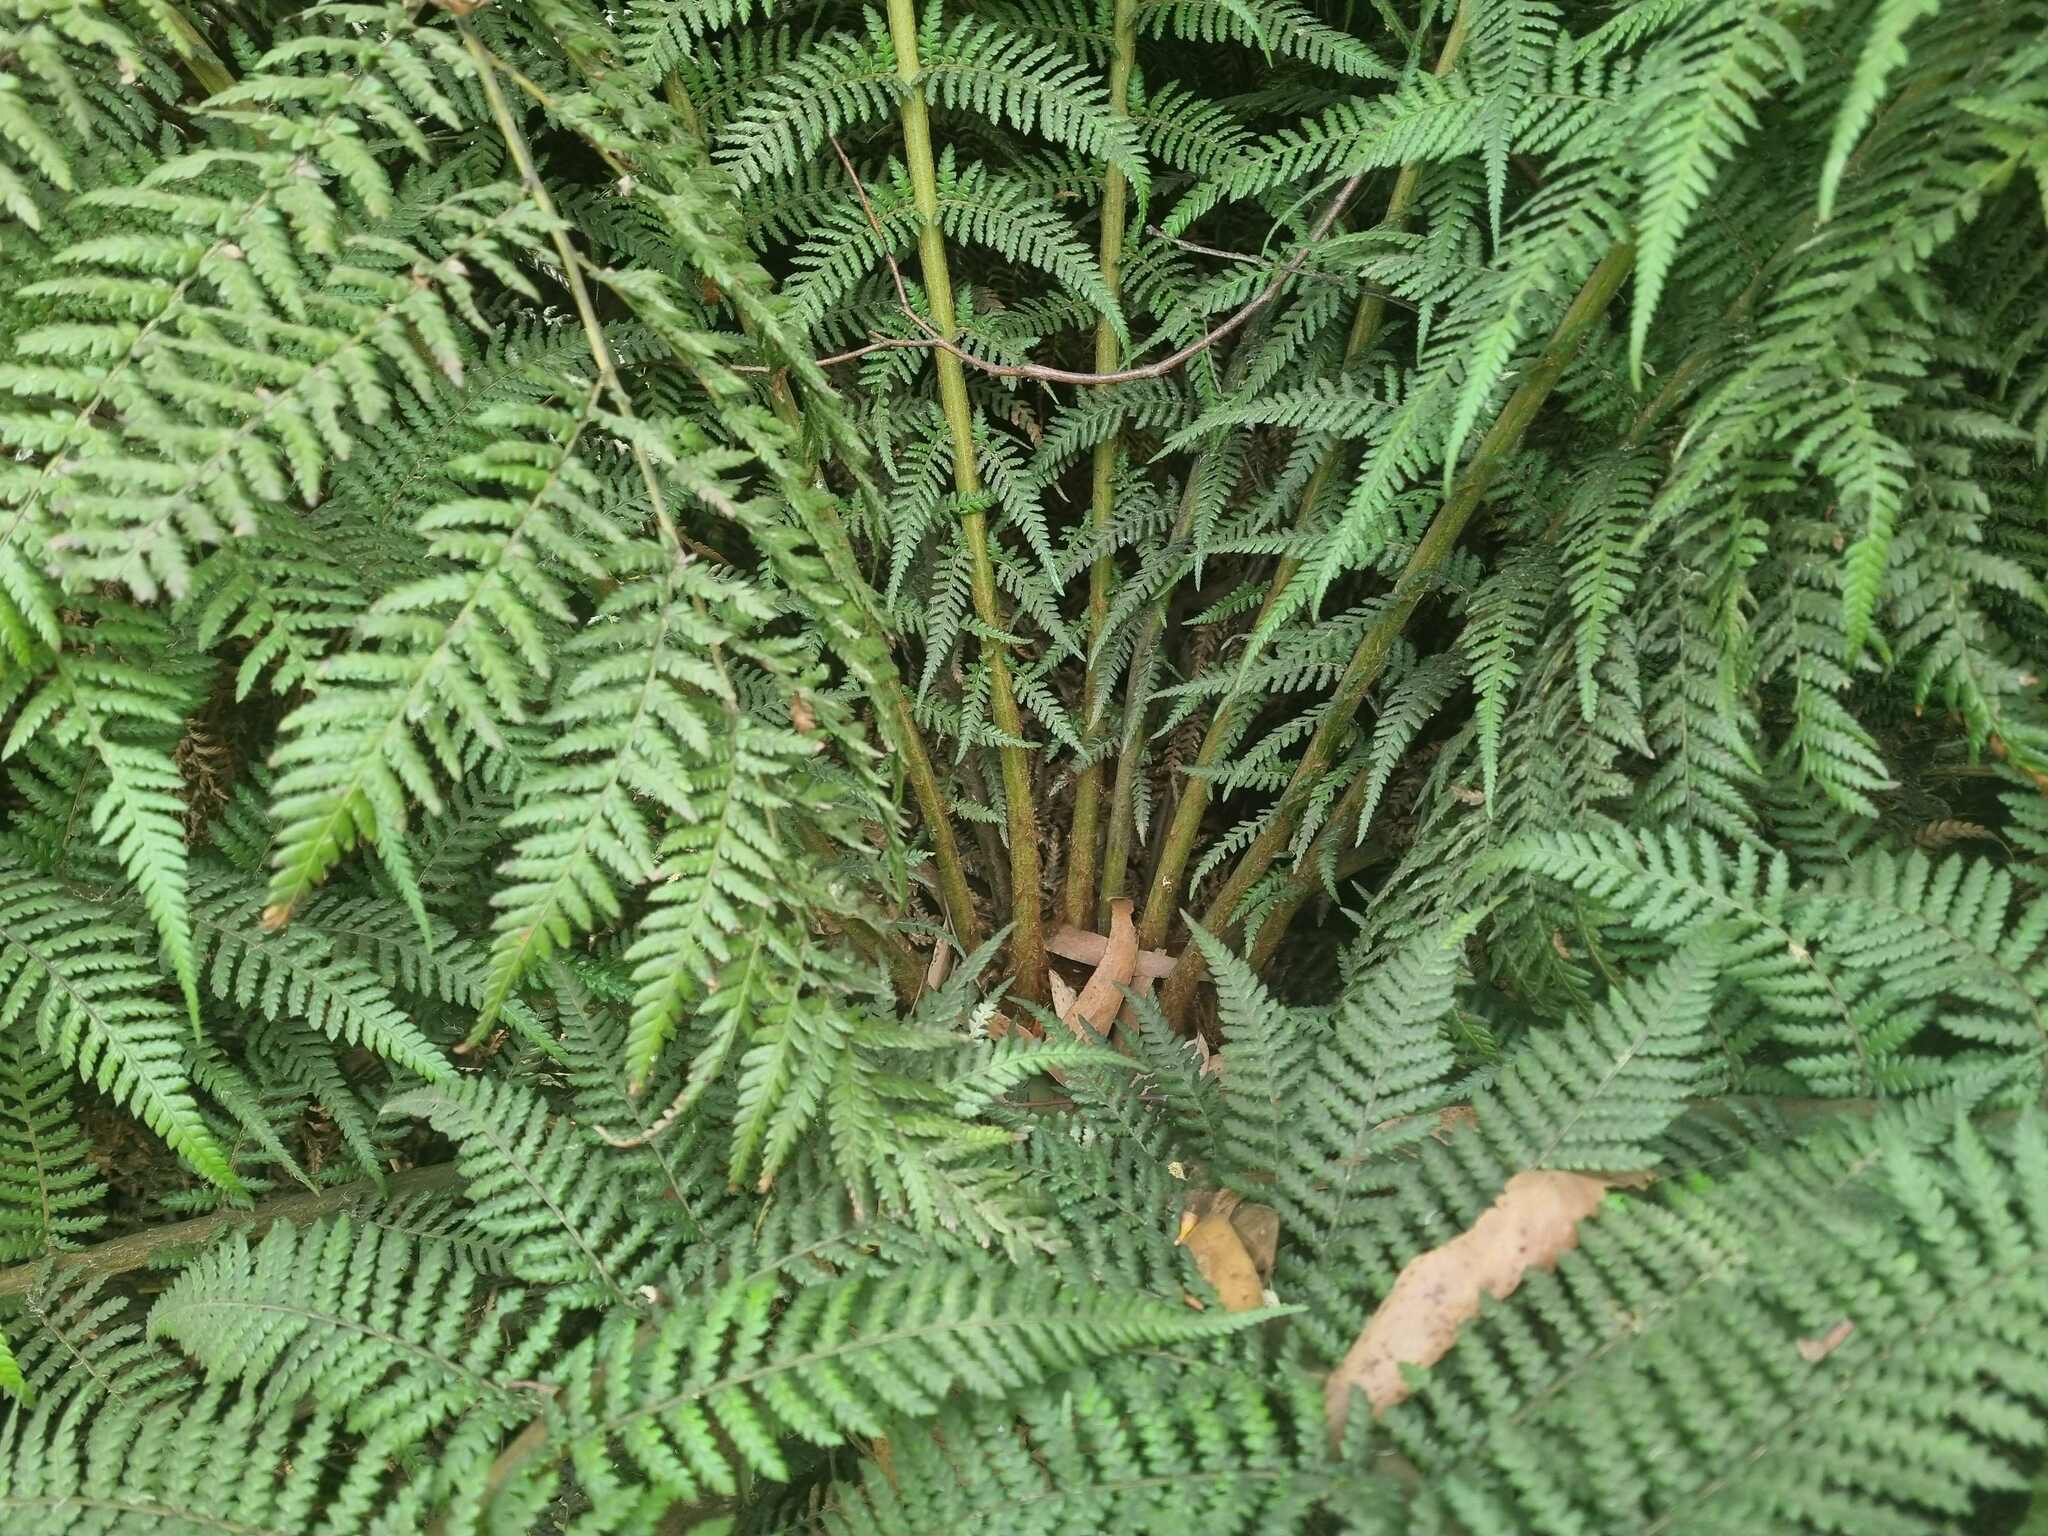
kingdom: Plantae
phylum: Tracheophyta
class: Polypodiopsida
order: Cyatheales
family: Dicksoniaceae
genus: Dicksonia
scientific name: Dicksonia antarctica
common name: Australian treefern
